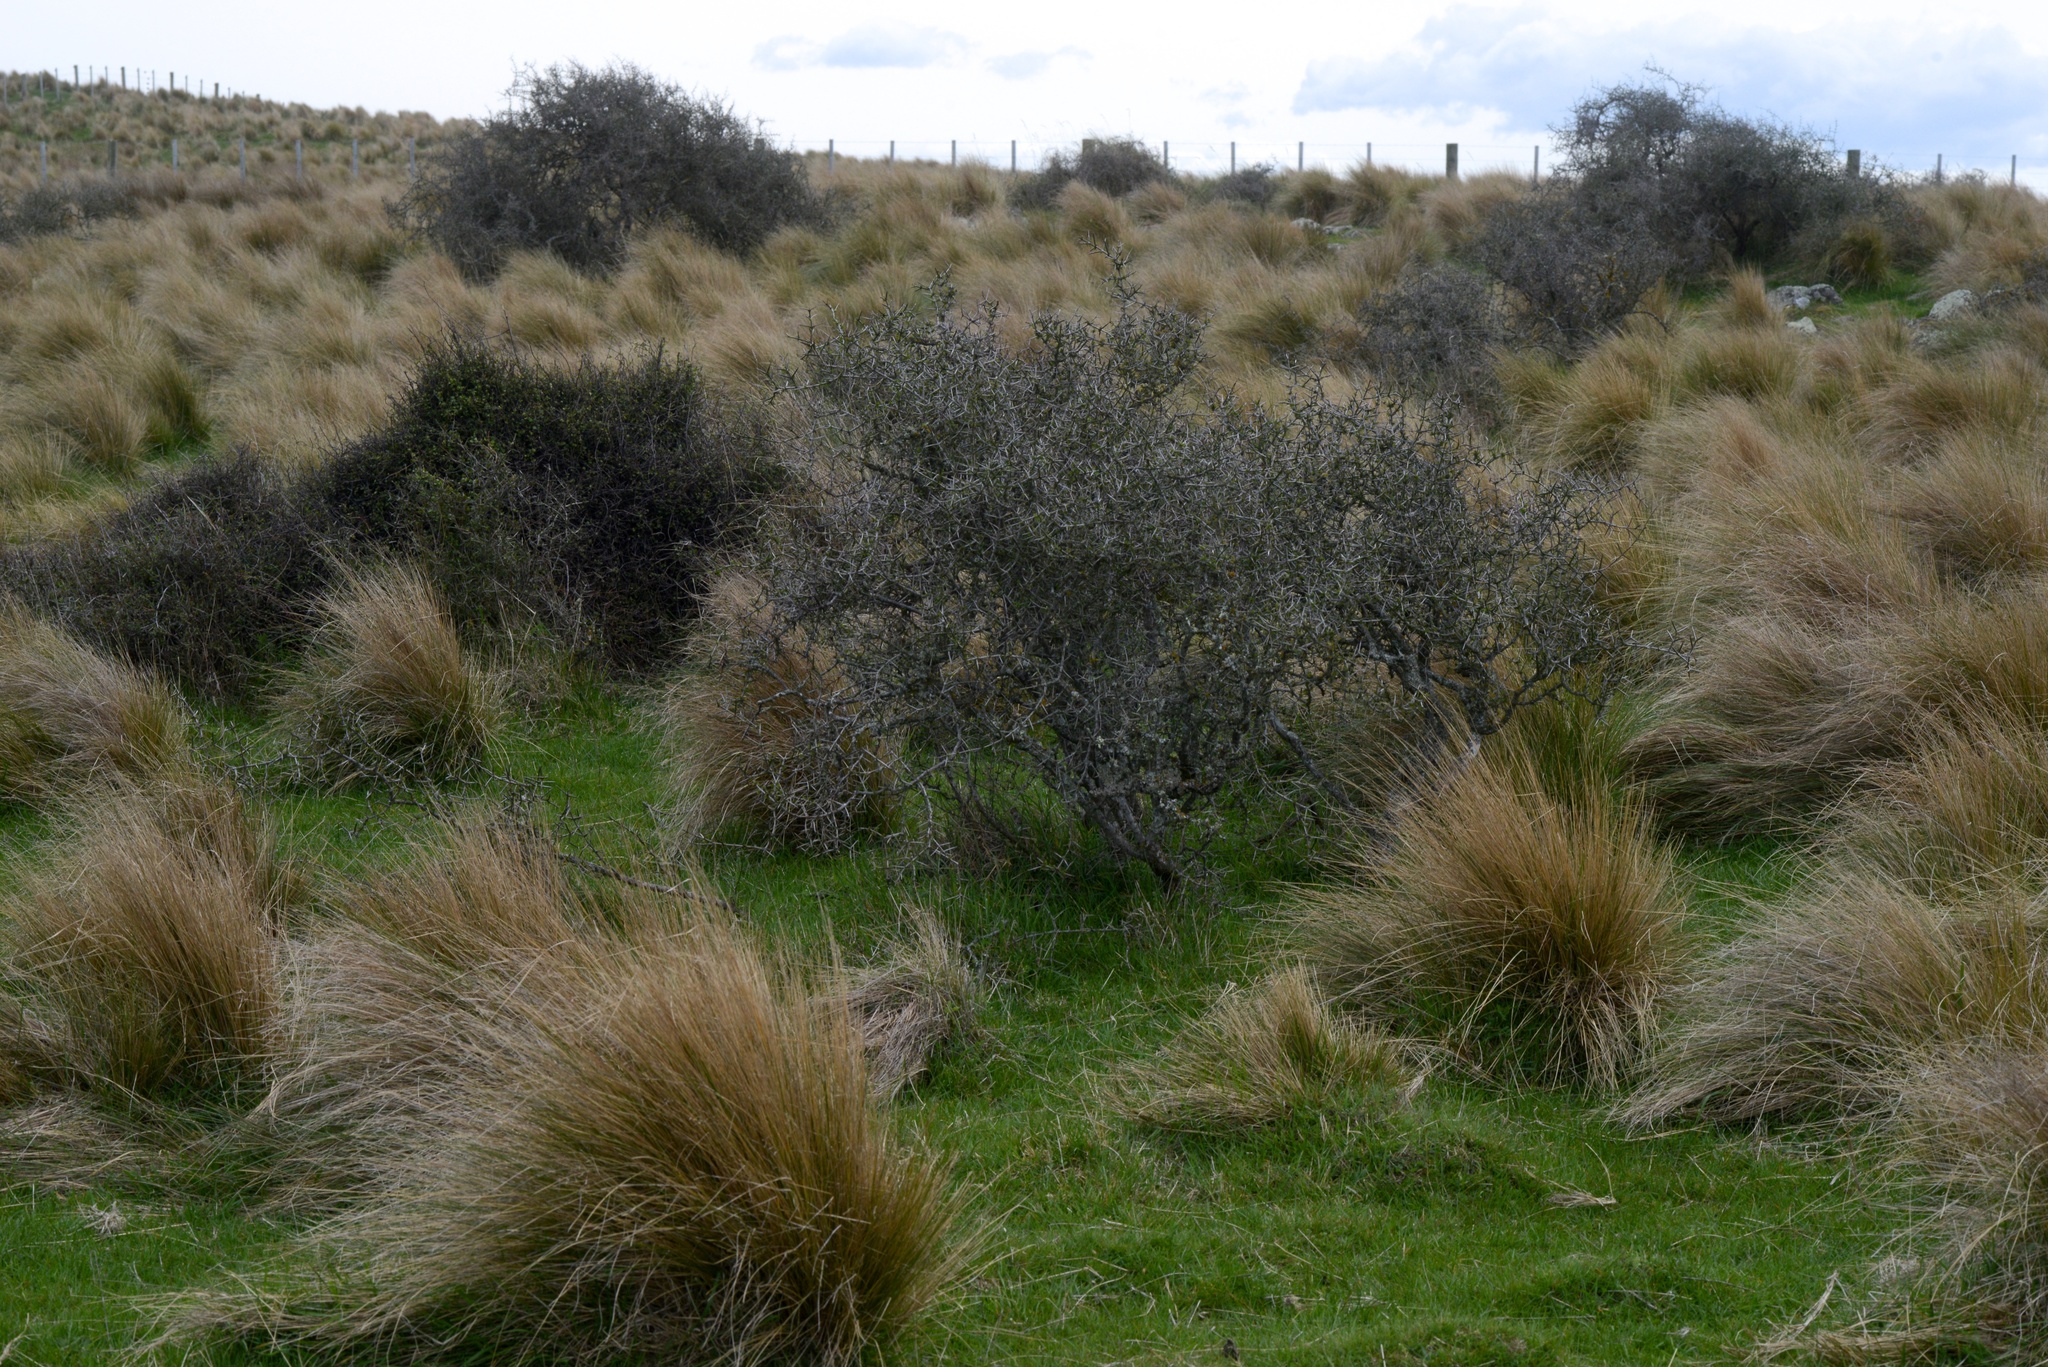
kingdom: Plantae
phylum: Tracheophyta
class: Magnoliopsida
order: Rosales
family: Rhamnaceae
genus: Discaria
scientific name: Discaria toumatou
